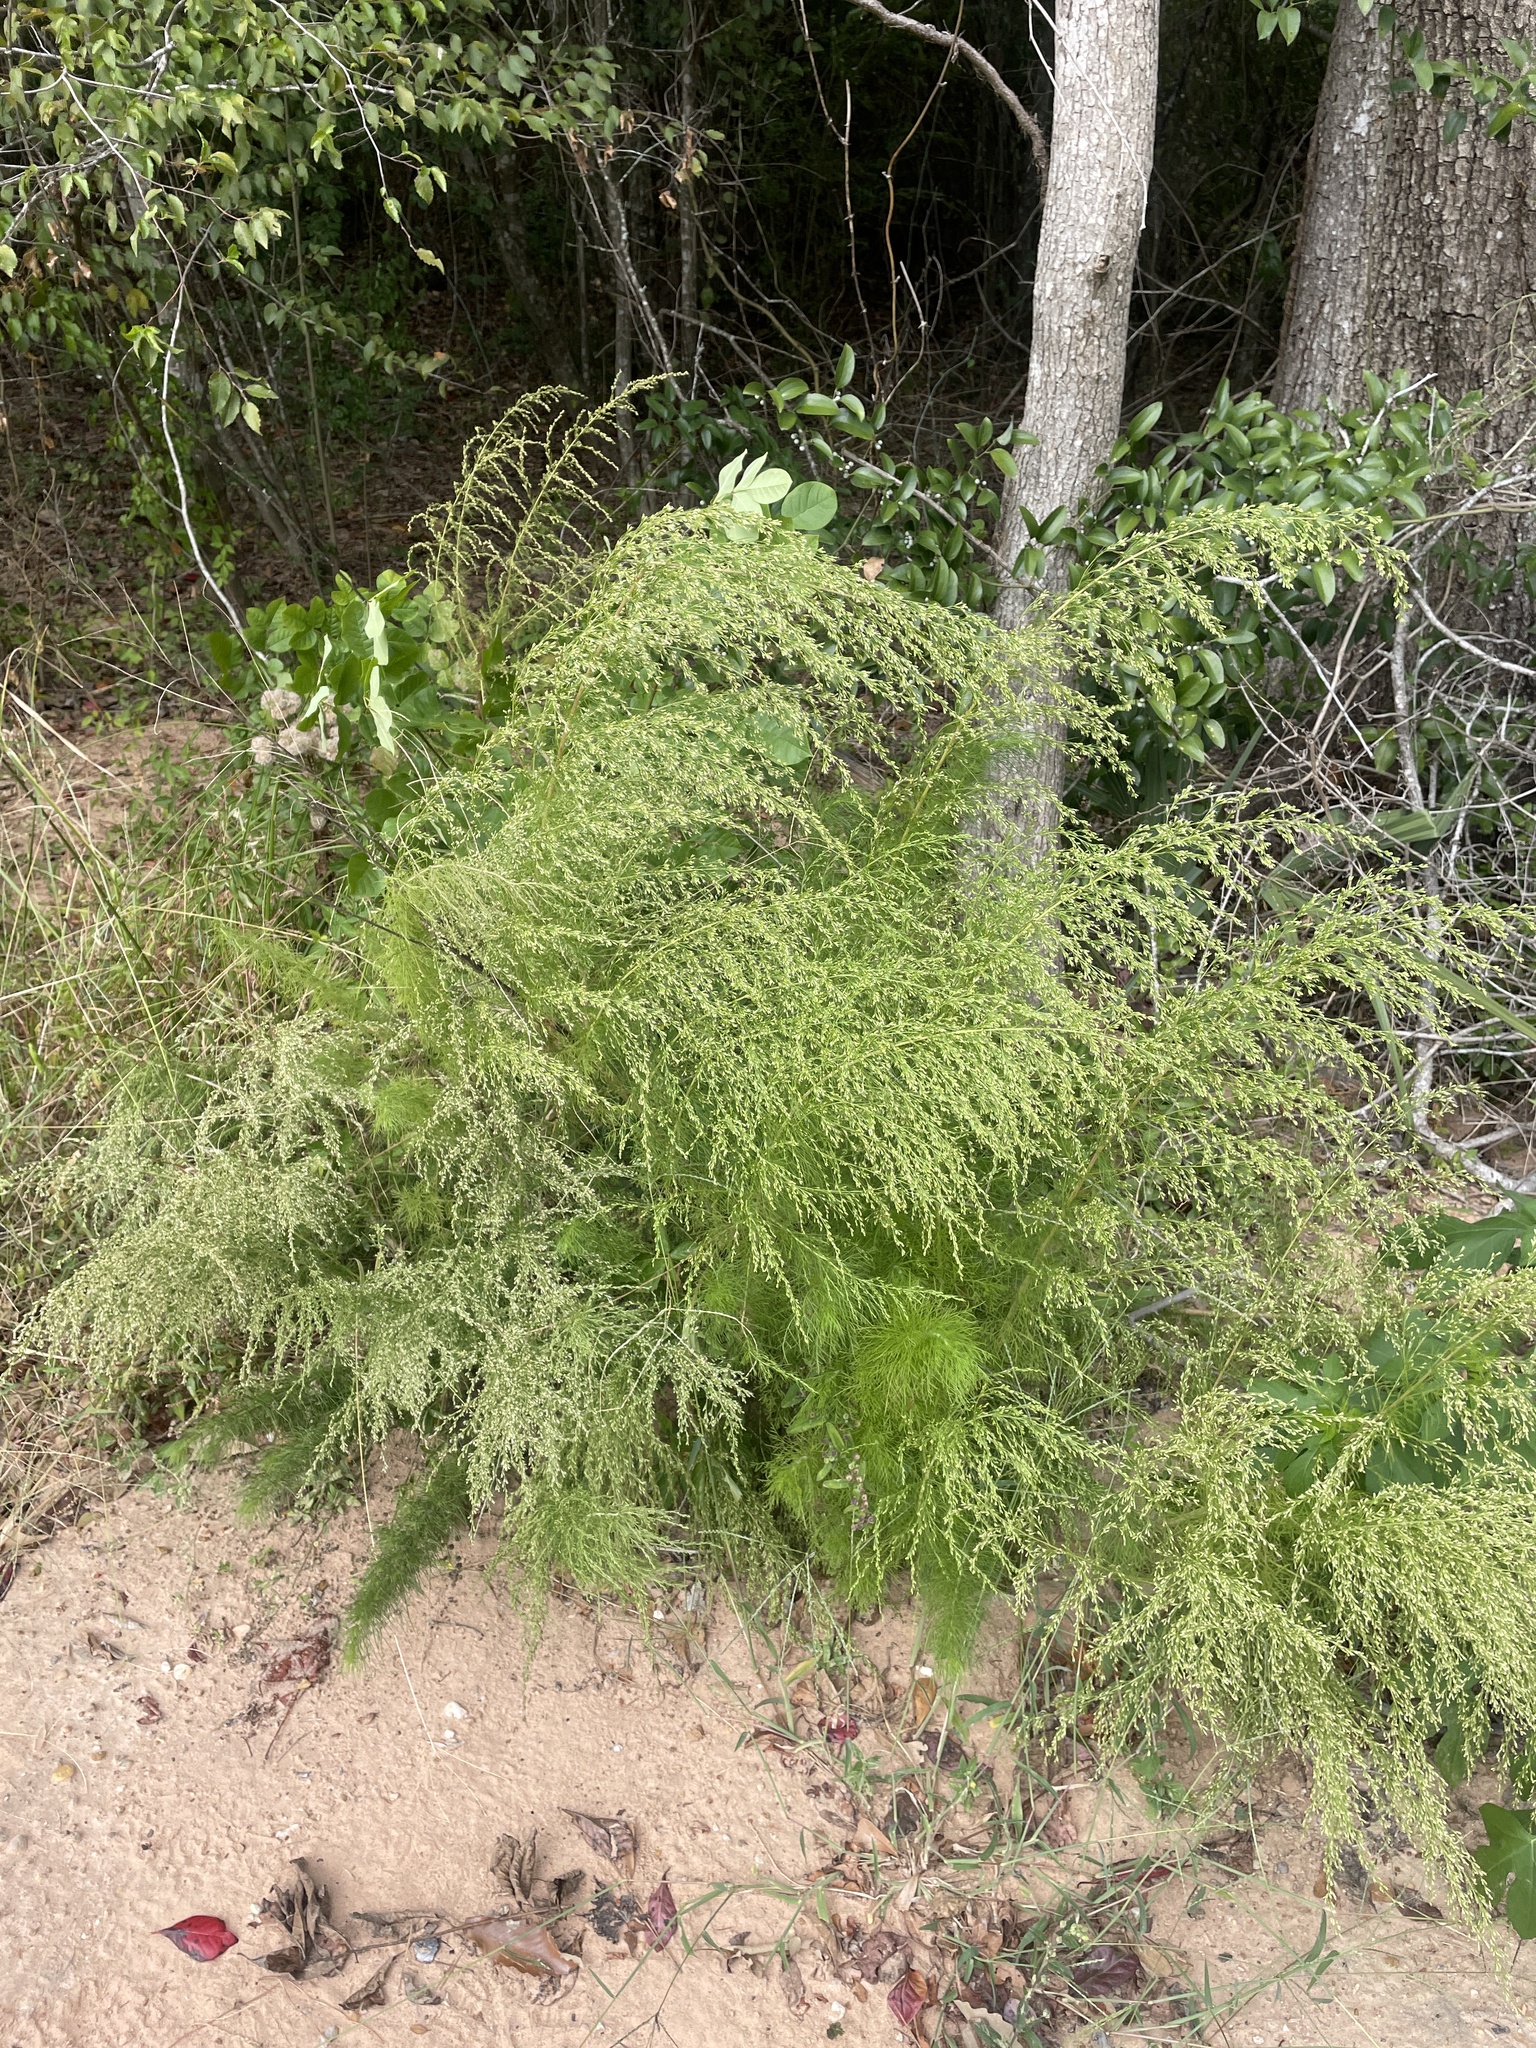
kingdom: Plantae
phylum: Tracheophyta
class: Magnoliopsida
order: Asterales
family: Asteraceae
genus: Eupatorium
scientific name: Eupatorium capillifolium
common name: Dog-fennel
